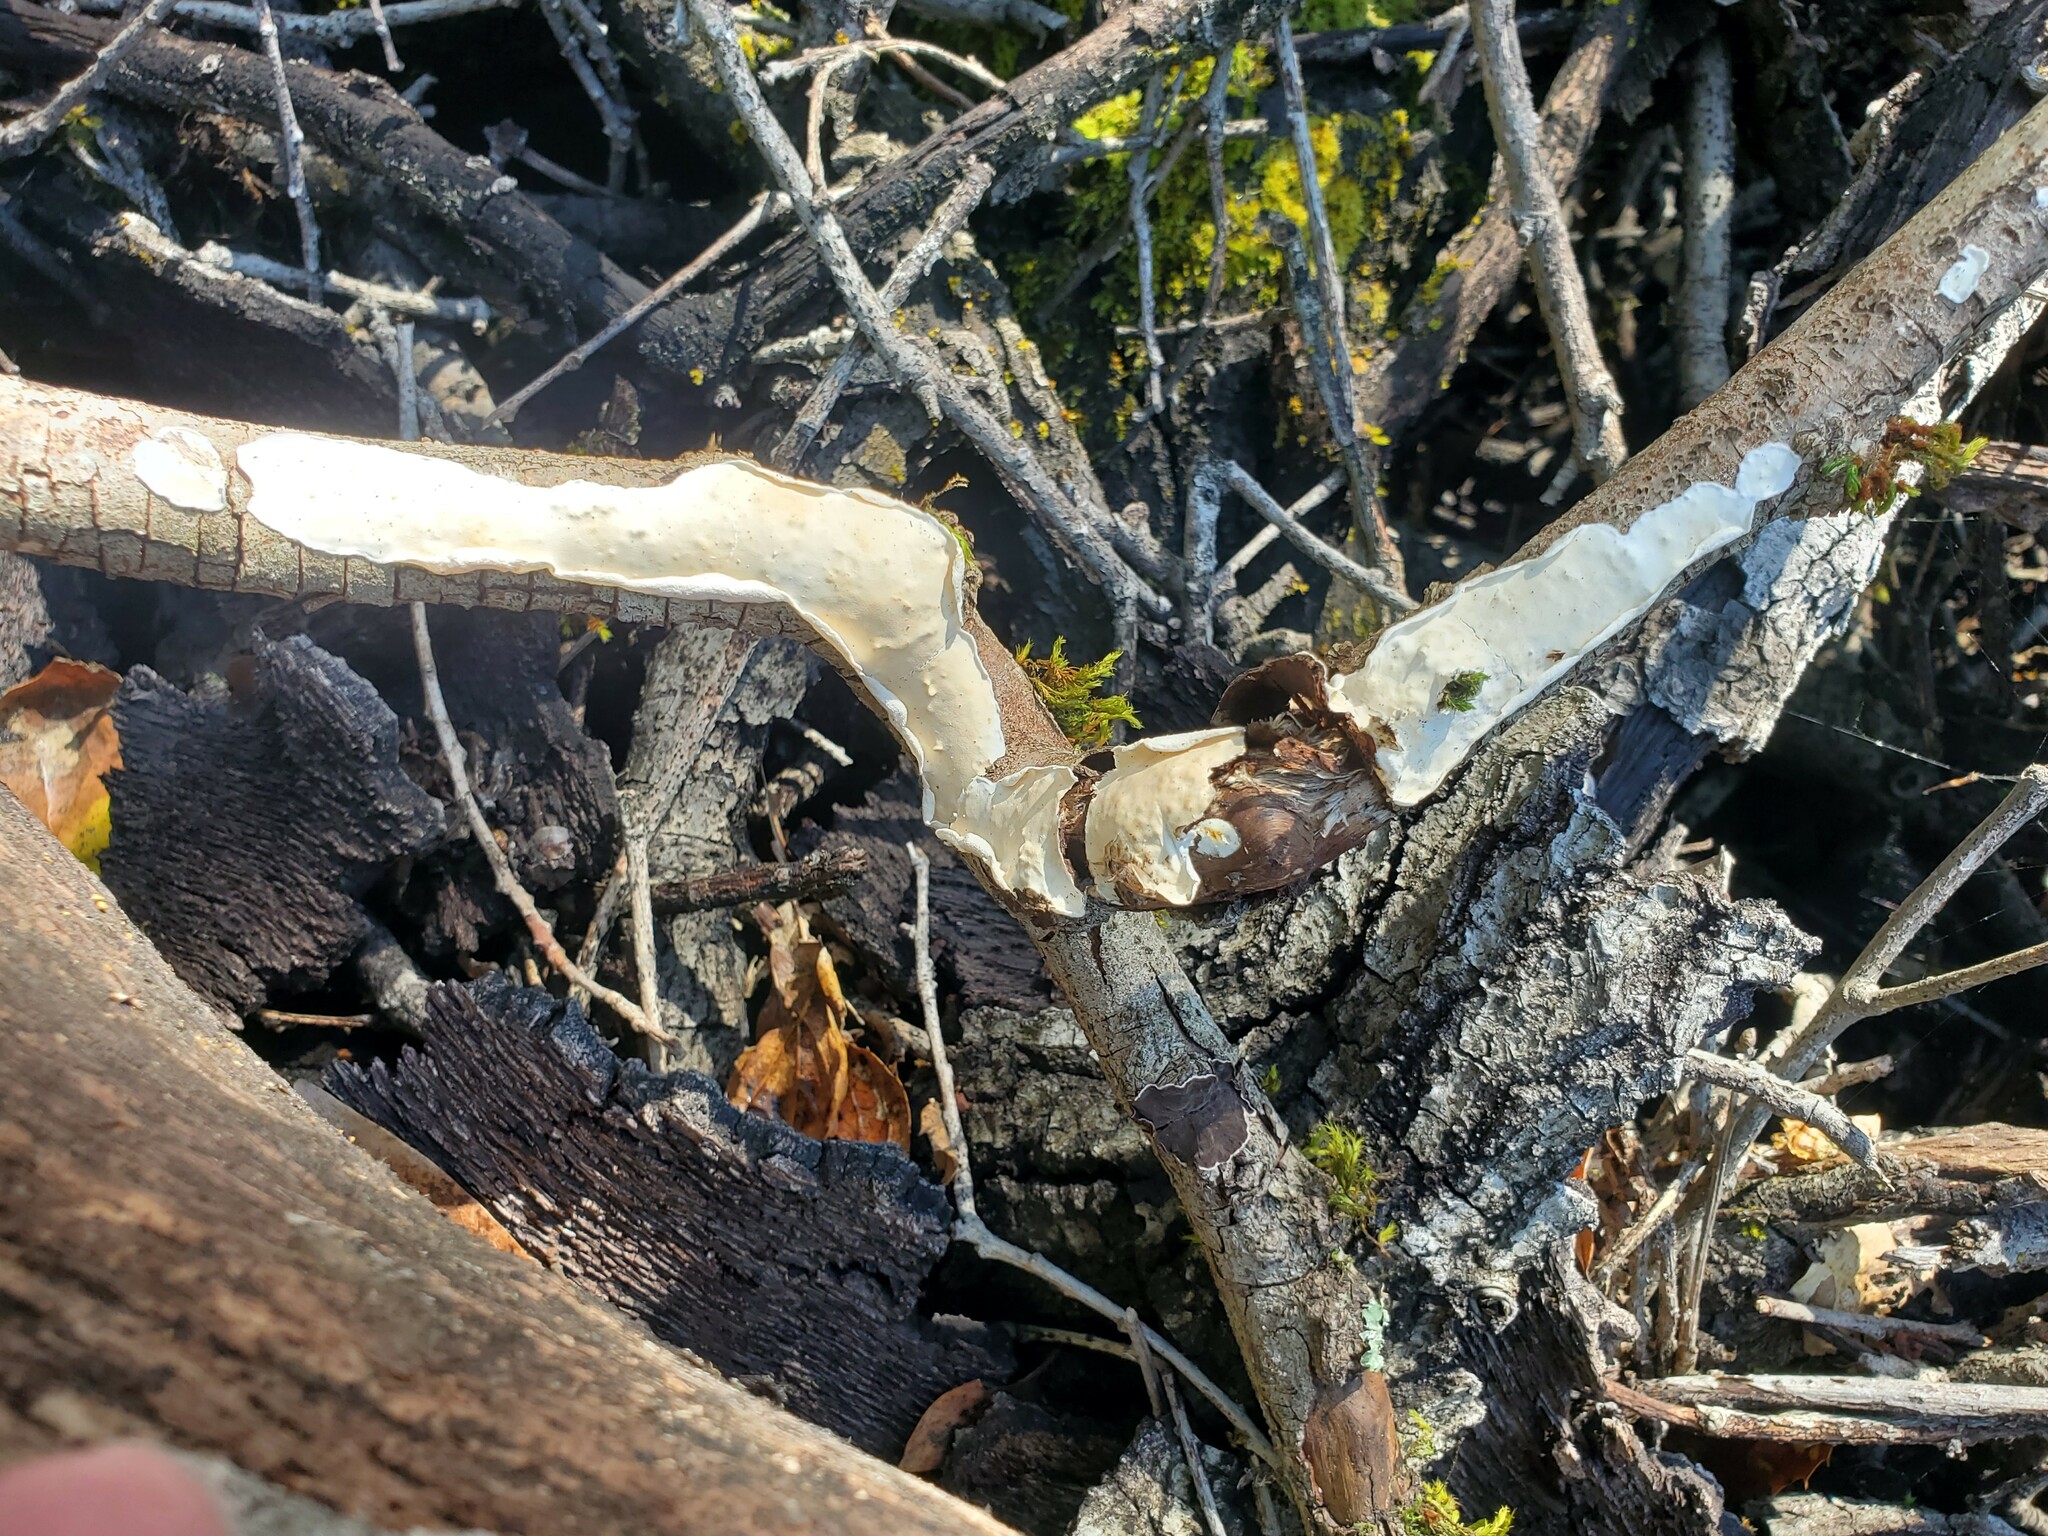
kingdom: Fungi
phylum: Basidiomycota
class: Agaricomycetes
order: Polyporales
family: Irpicaceae
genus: Byssomerulius
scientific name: Byssomerulius corium
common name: Netted crust
